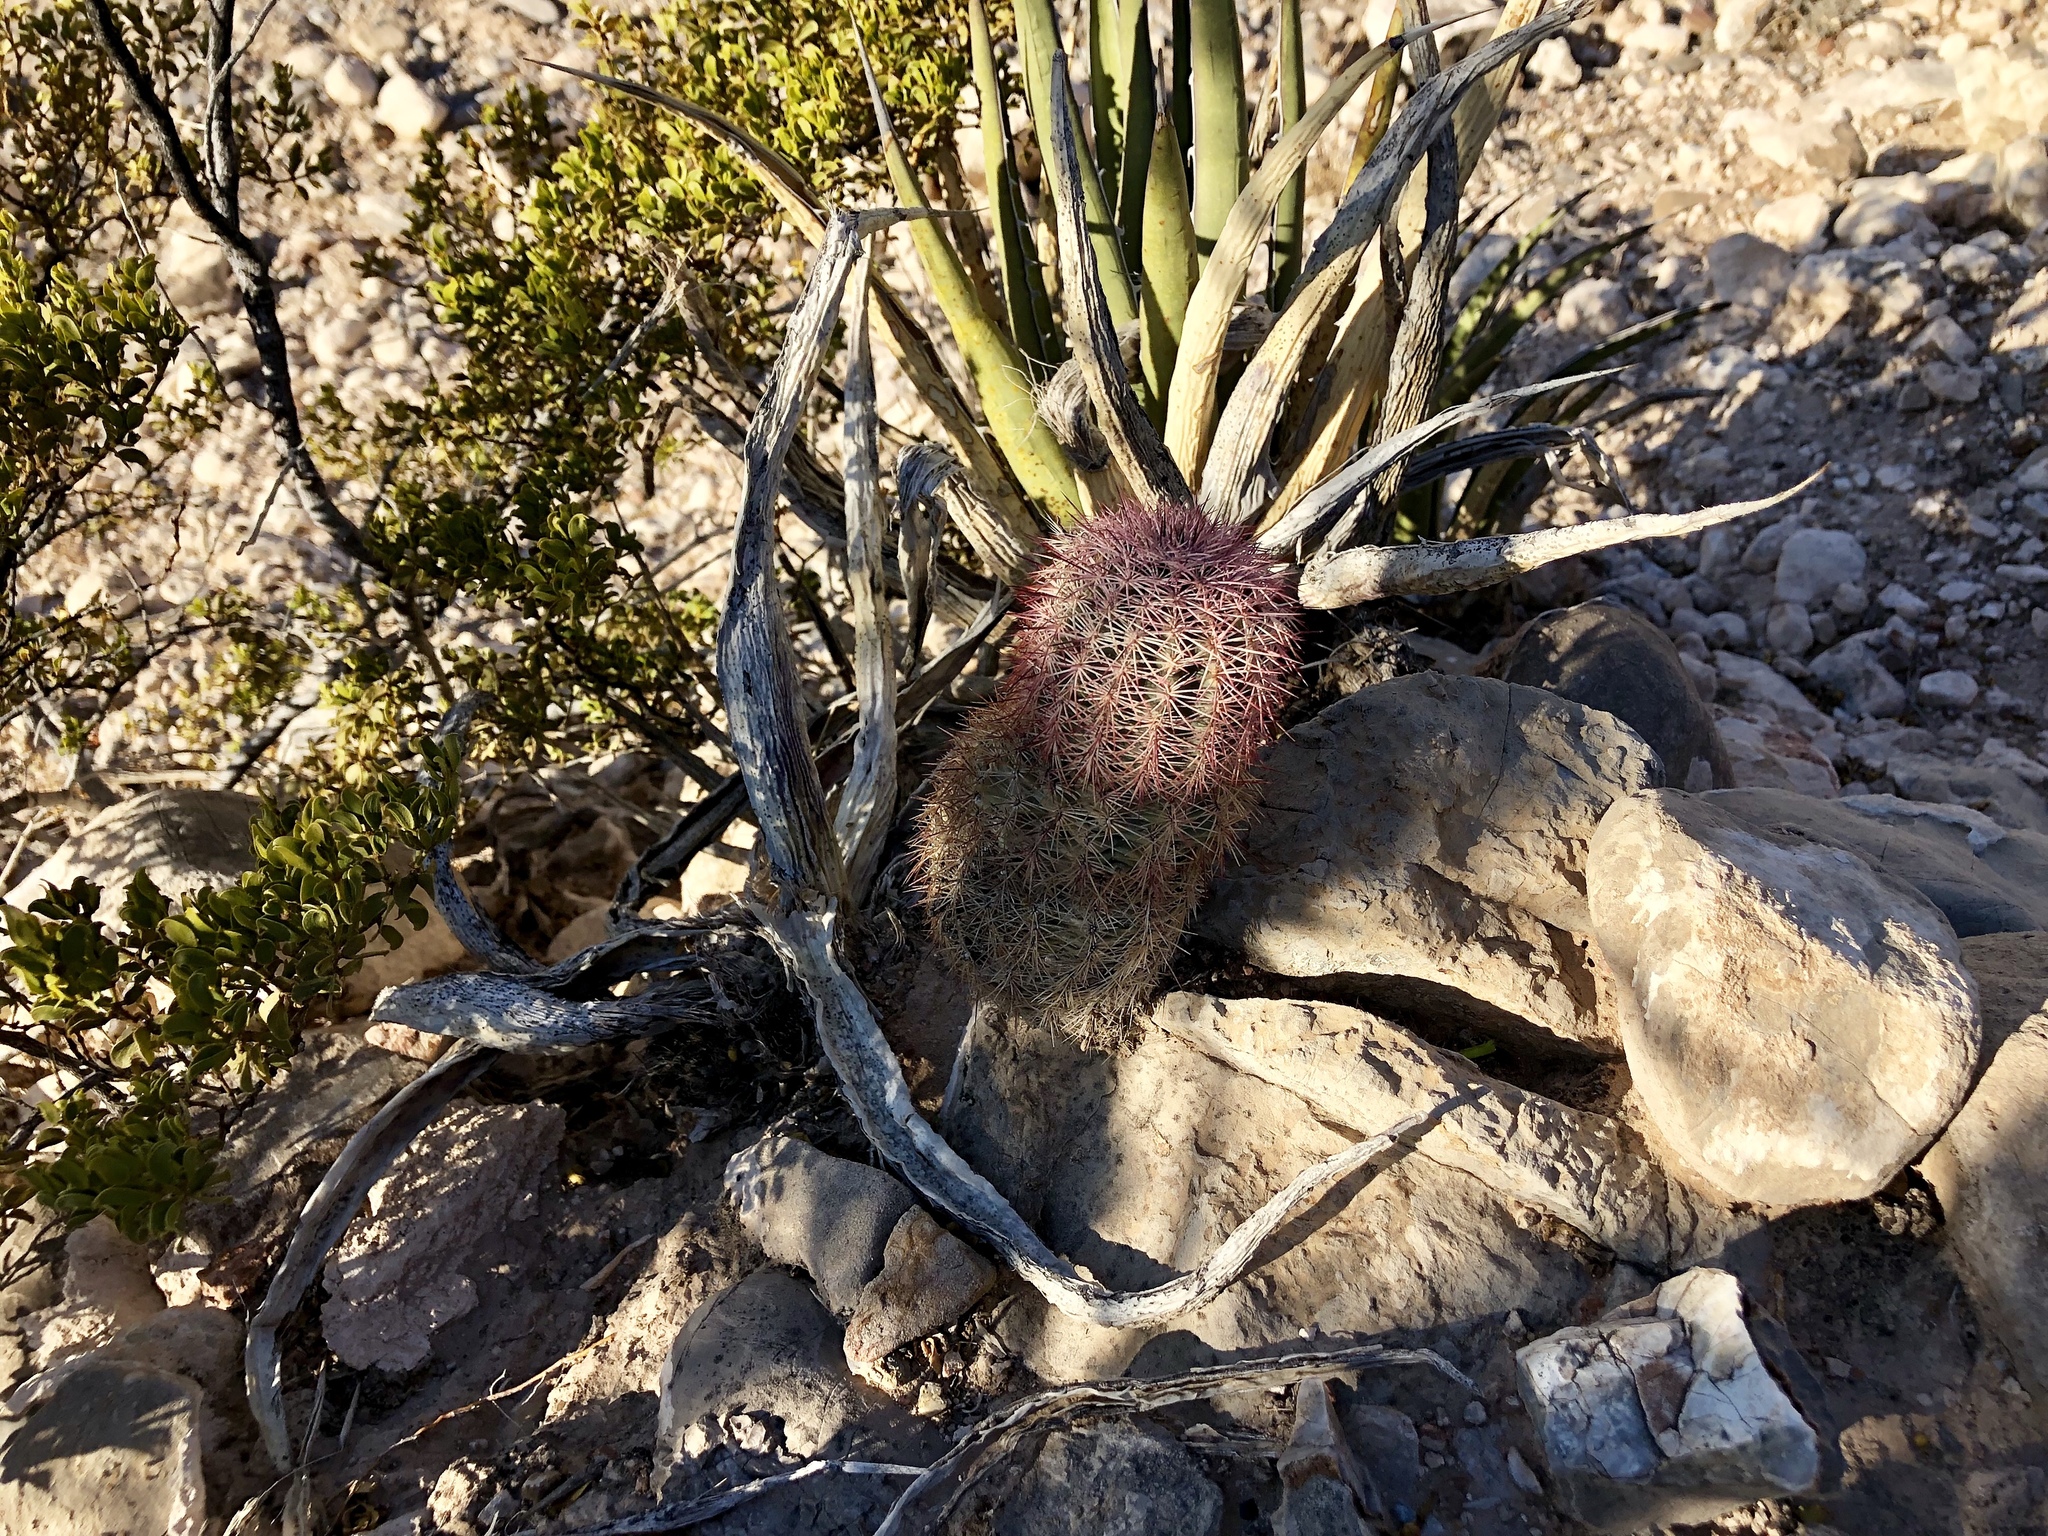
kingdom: Plantae
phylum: Tracheophyta
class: Magnoliopsida
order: Caryophyllales
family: Cactaceae
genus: Echinocereus
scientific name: Echinocereus dasyacanthus
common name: Spiny hedgehog cactus
